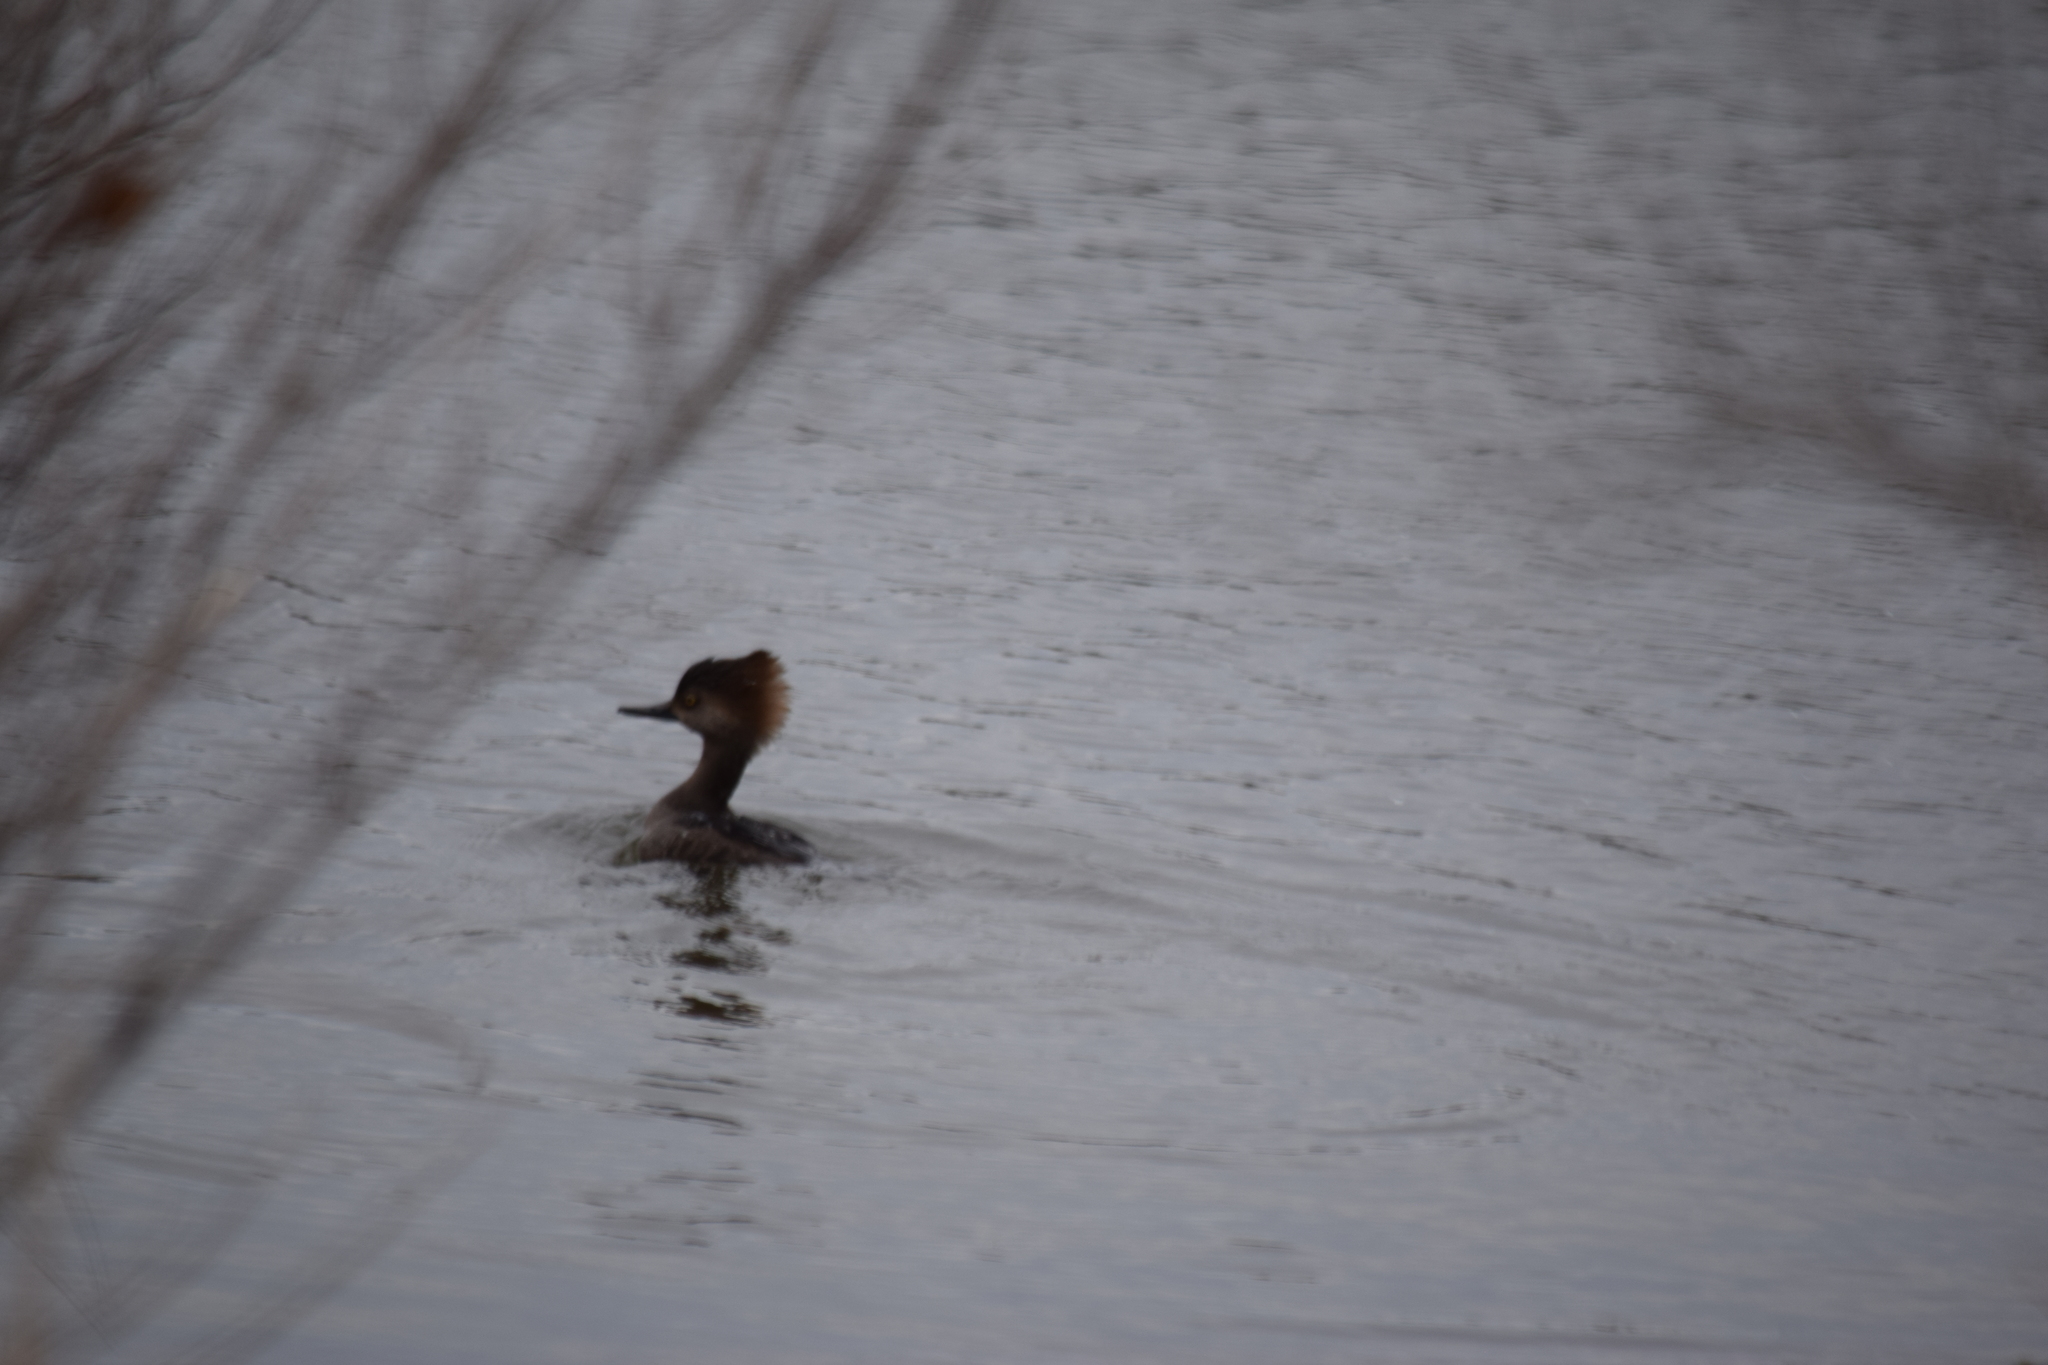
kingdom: Animalia
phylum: Chordata
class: Aves
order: Anseriformes
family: Anatidae
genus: Lophodytes
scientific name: Lophodytes cucullatus
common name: Hooded merganser
